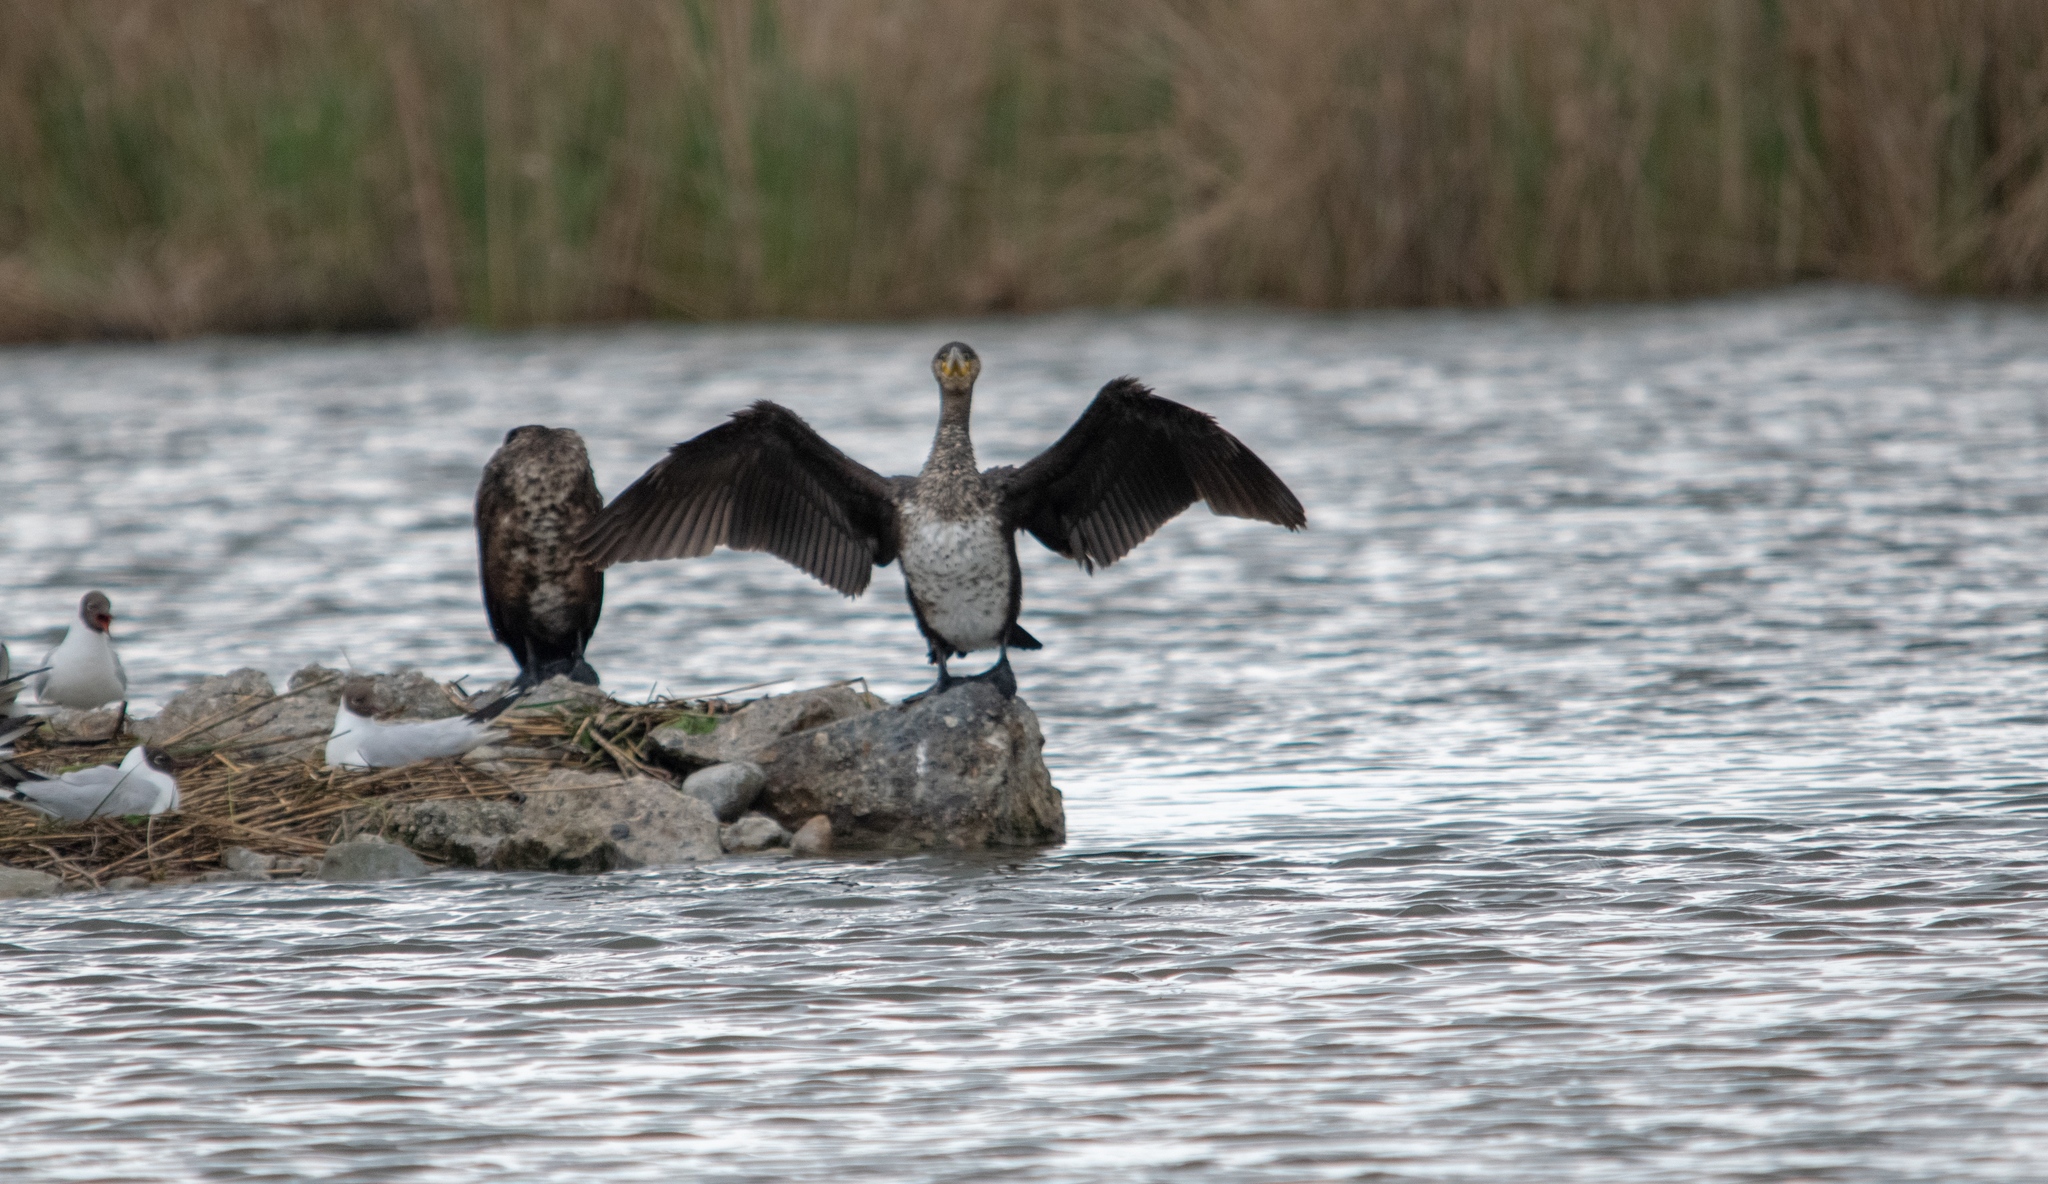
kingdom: Animalia
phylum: Chordata
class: Aves
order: Suliformes
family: Phalacrocoracidae
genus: Phalacrocorax
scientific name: Phalacrocorax carbo
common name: Great cormorant
